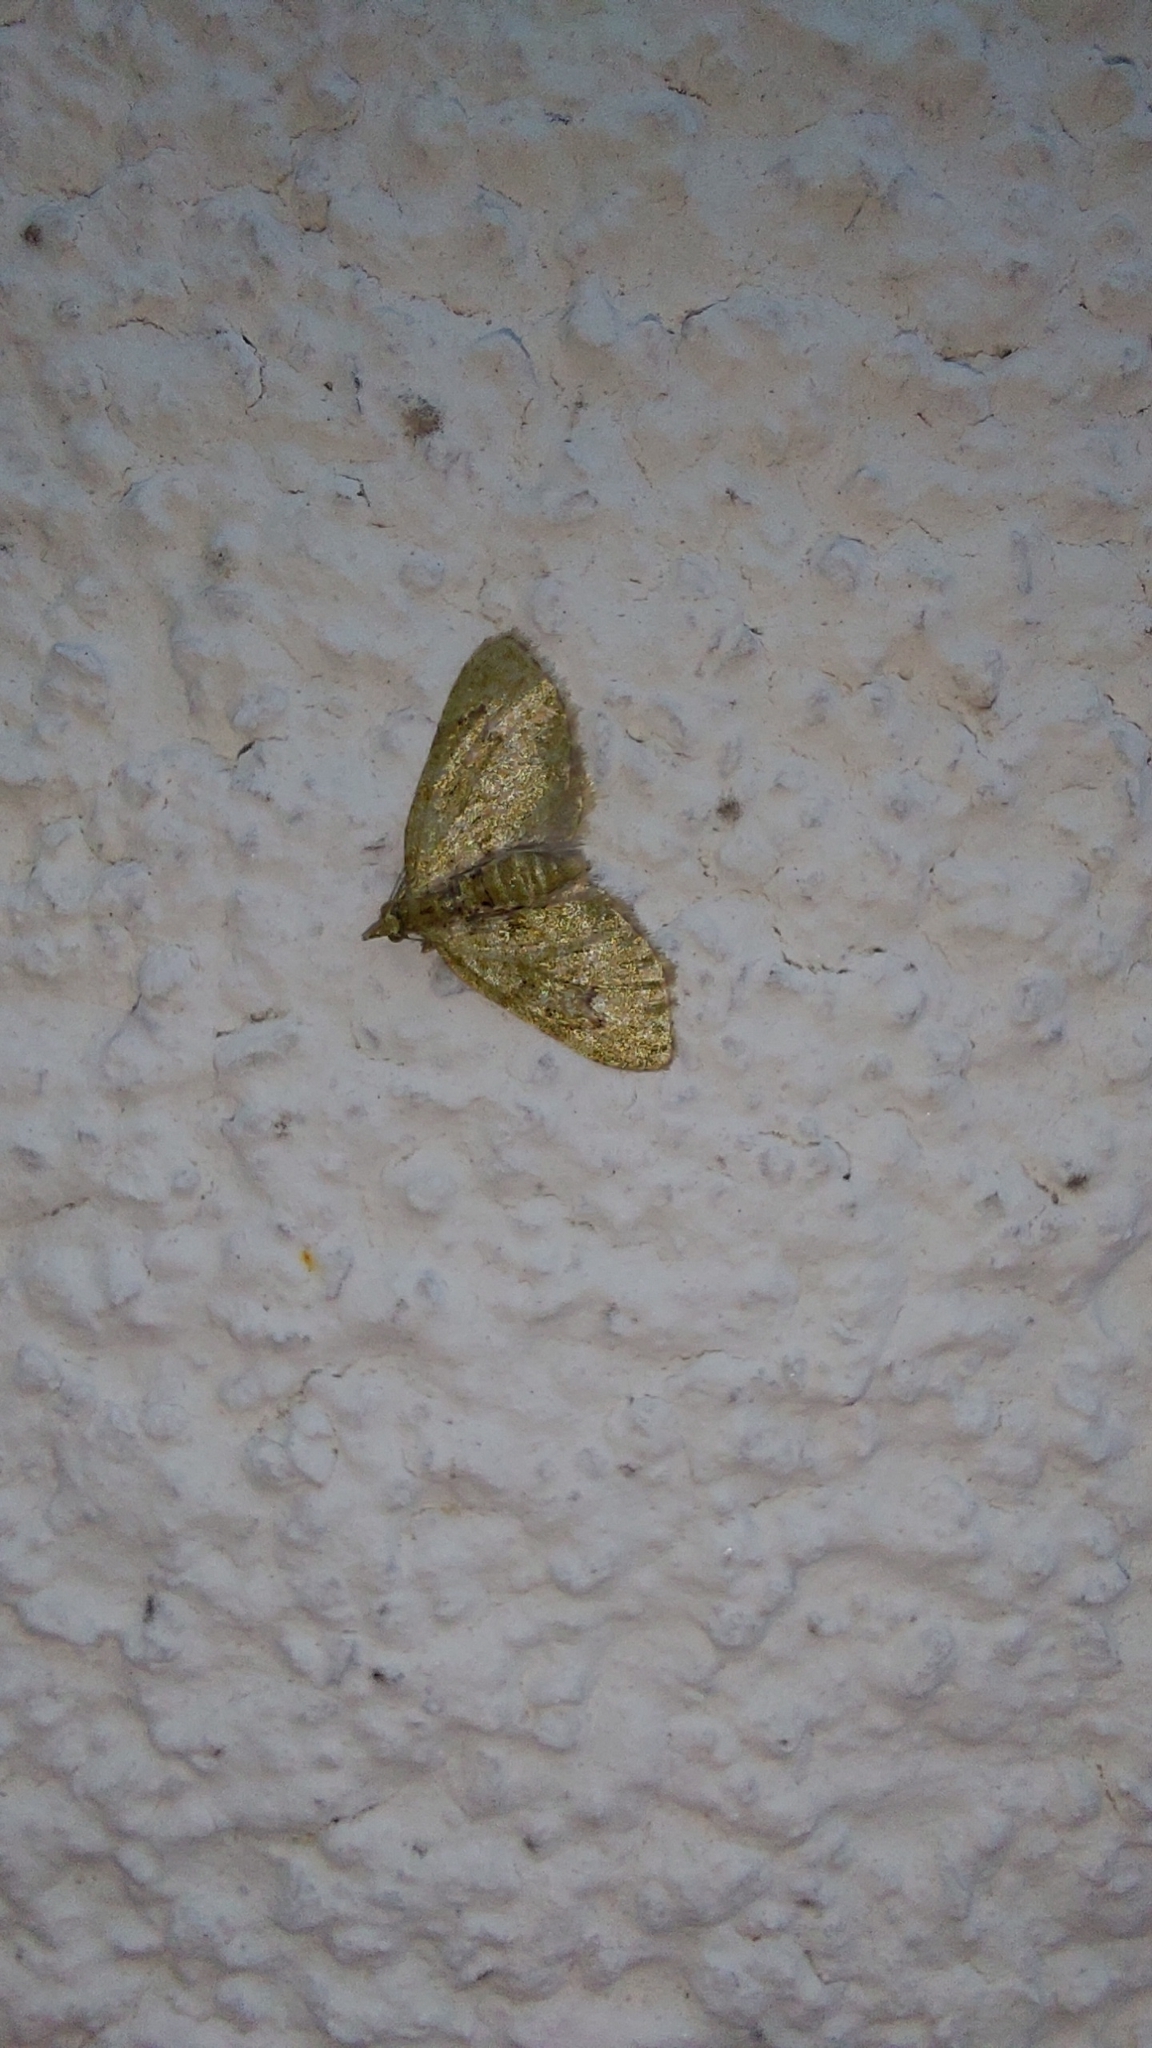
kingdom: Animalia
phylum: Arthropoda
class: Insecta
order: Lepidoptera
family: Geometridae
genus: Chloroclystis
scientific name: Chloroclystis v-ata
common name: V-pug
